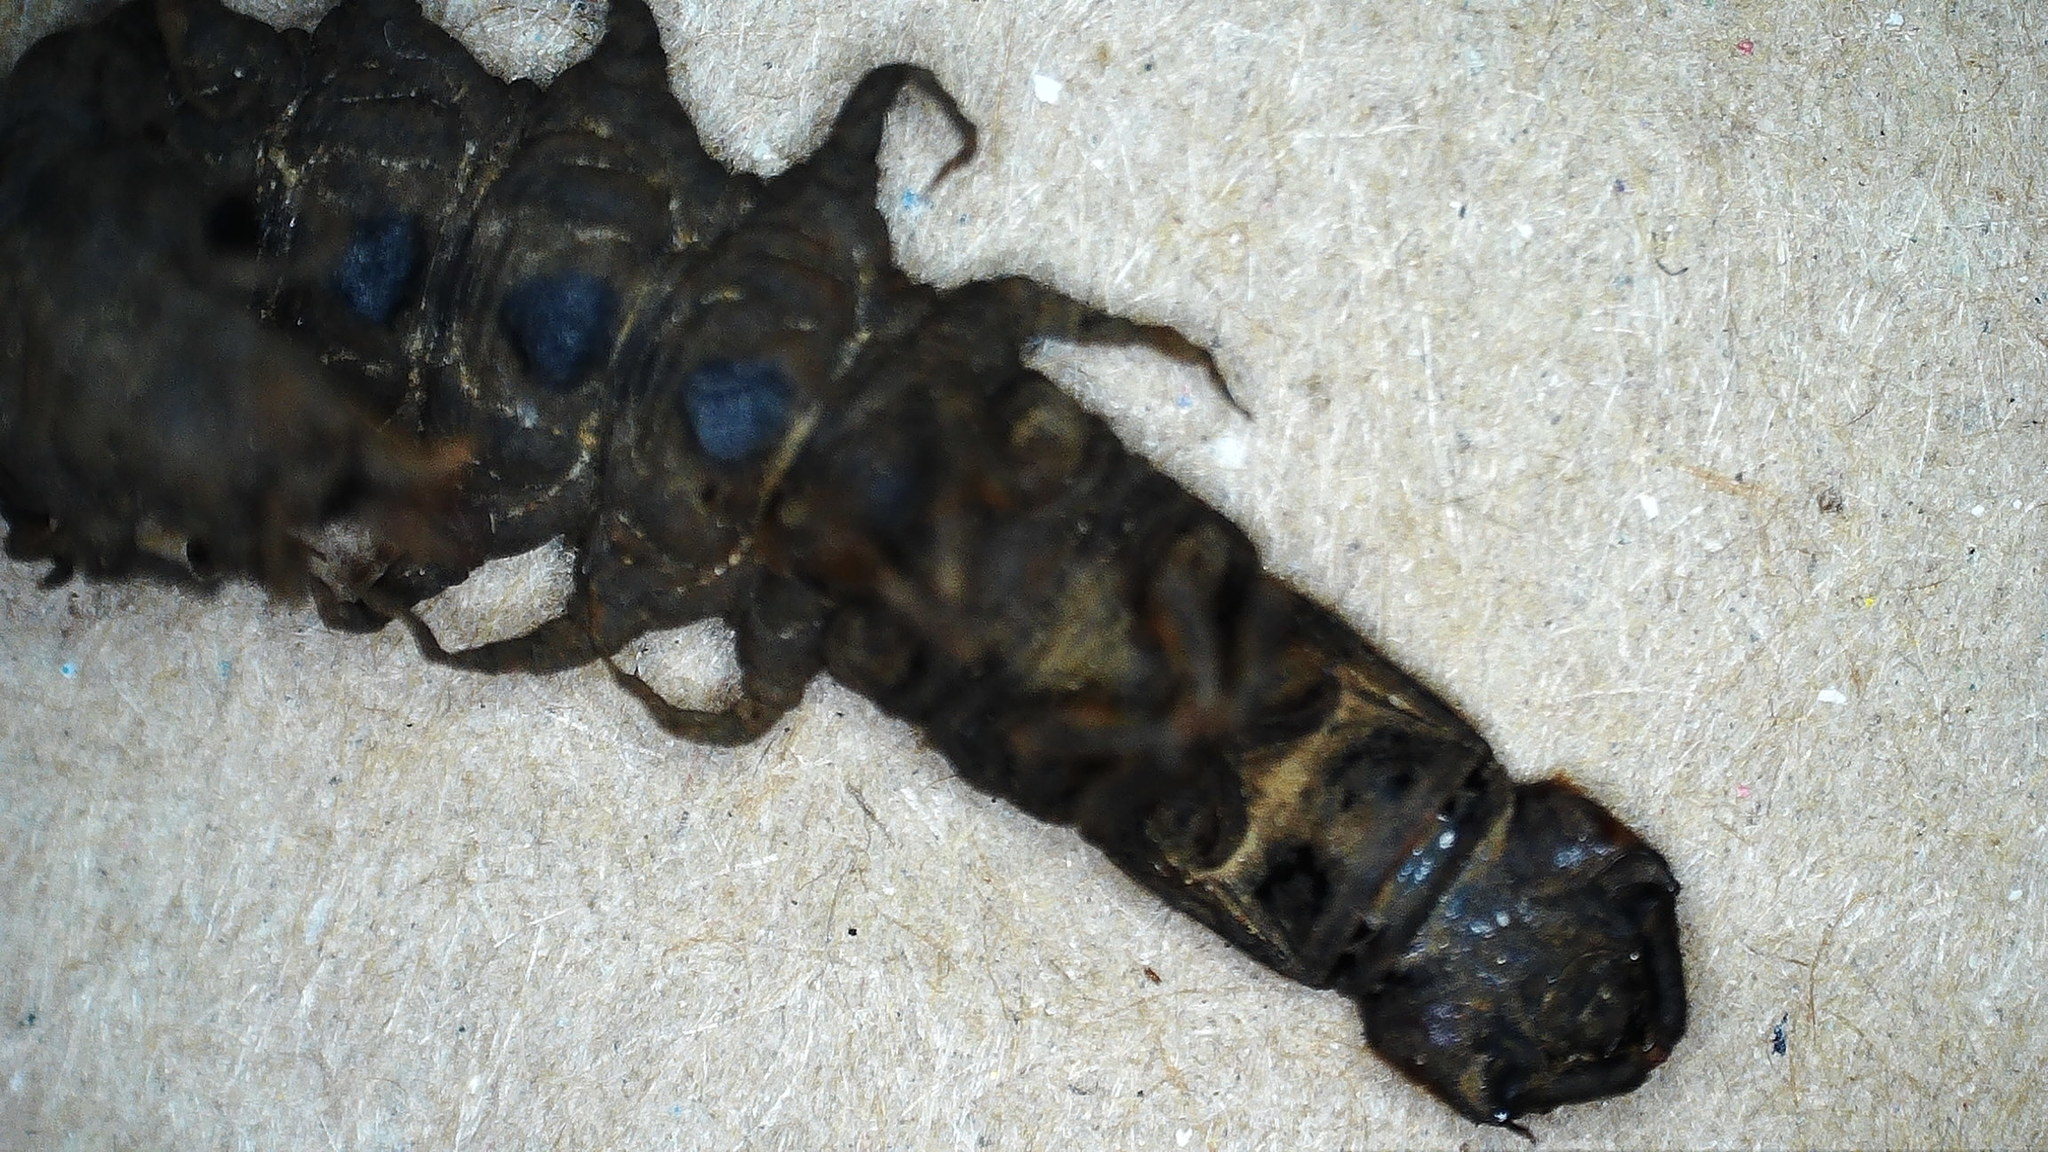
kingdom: Animalia
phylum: Arthropoda
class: Insecta
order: Megaloptera
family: Corydalidae
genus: Archichauliodes
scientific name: Archichauliodes diversus
